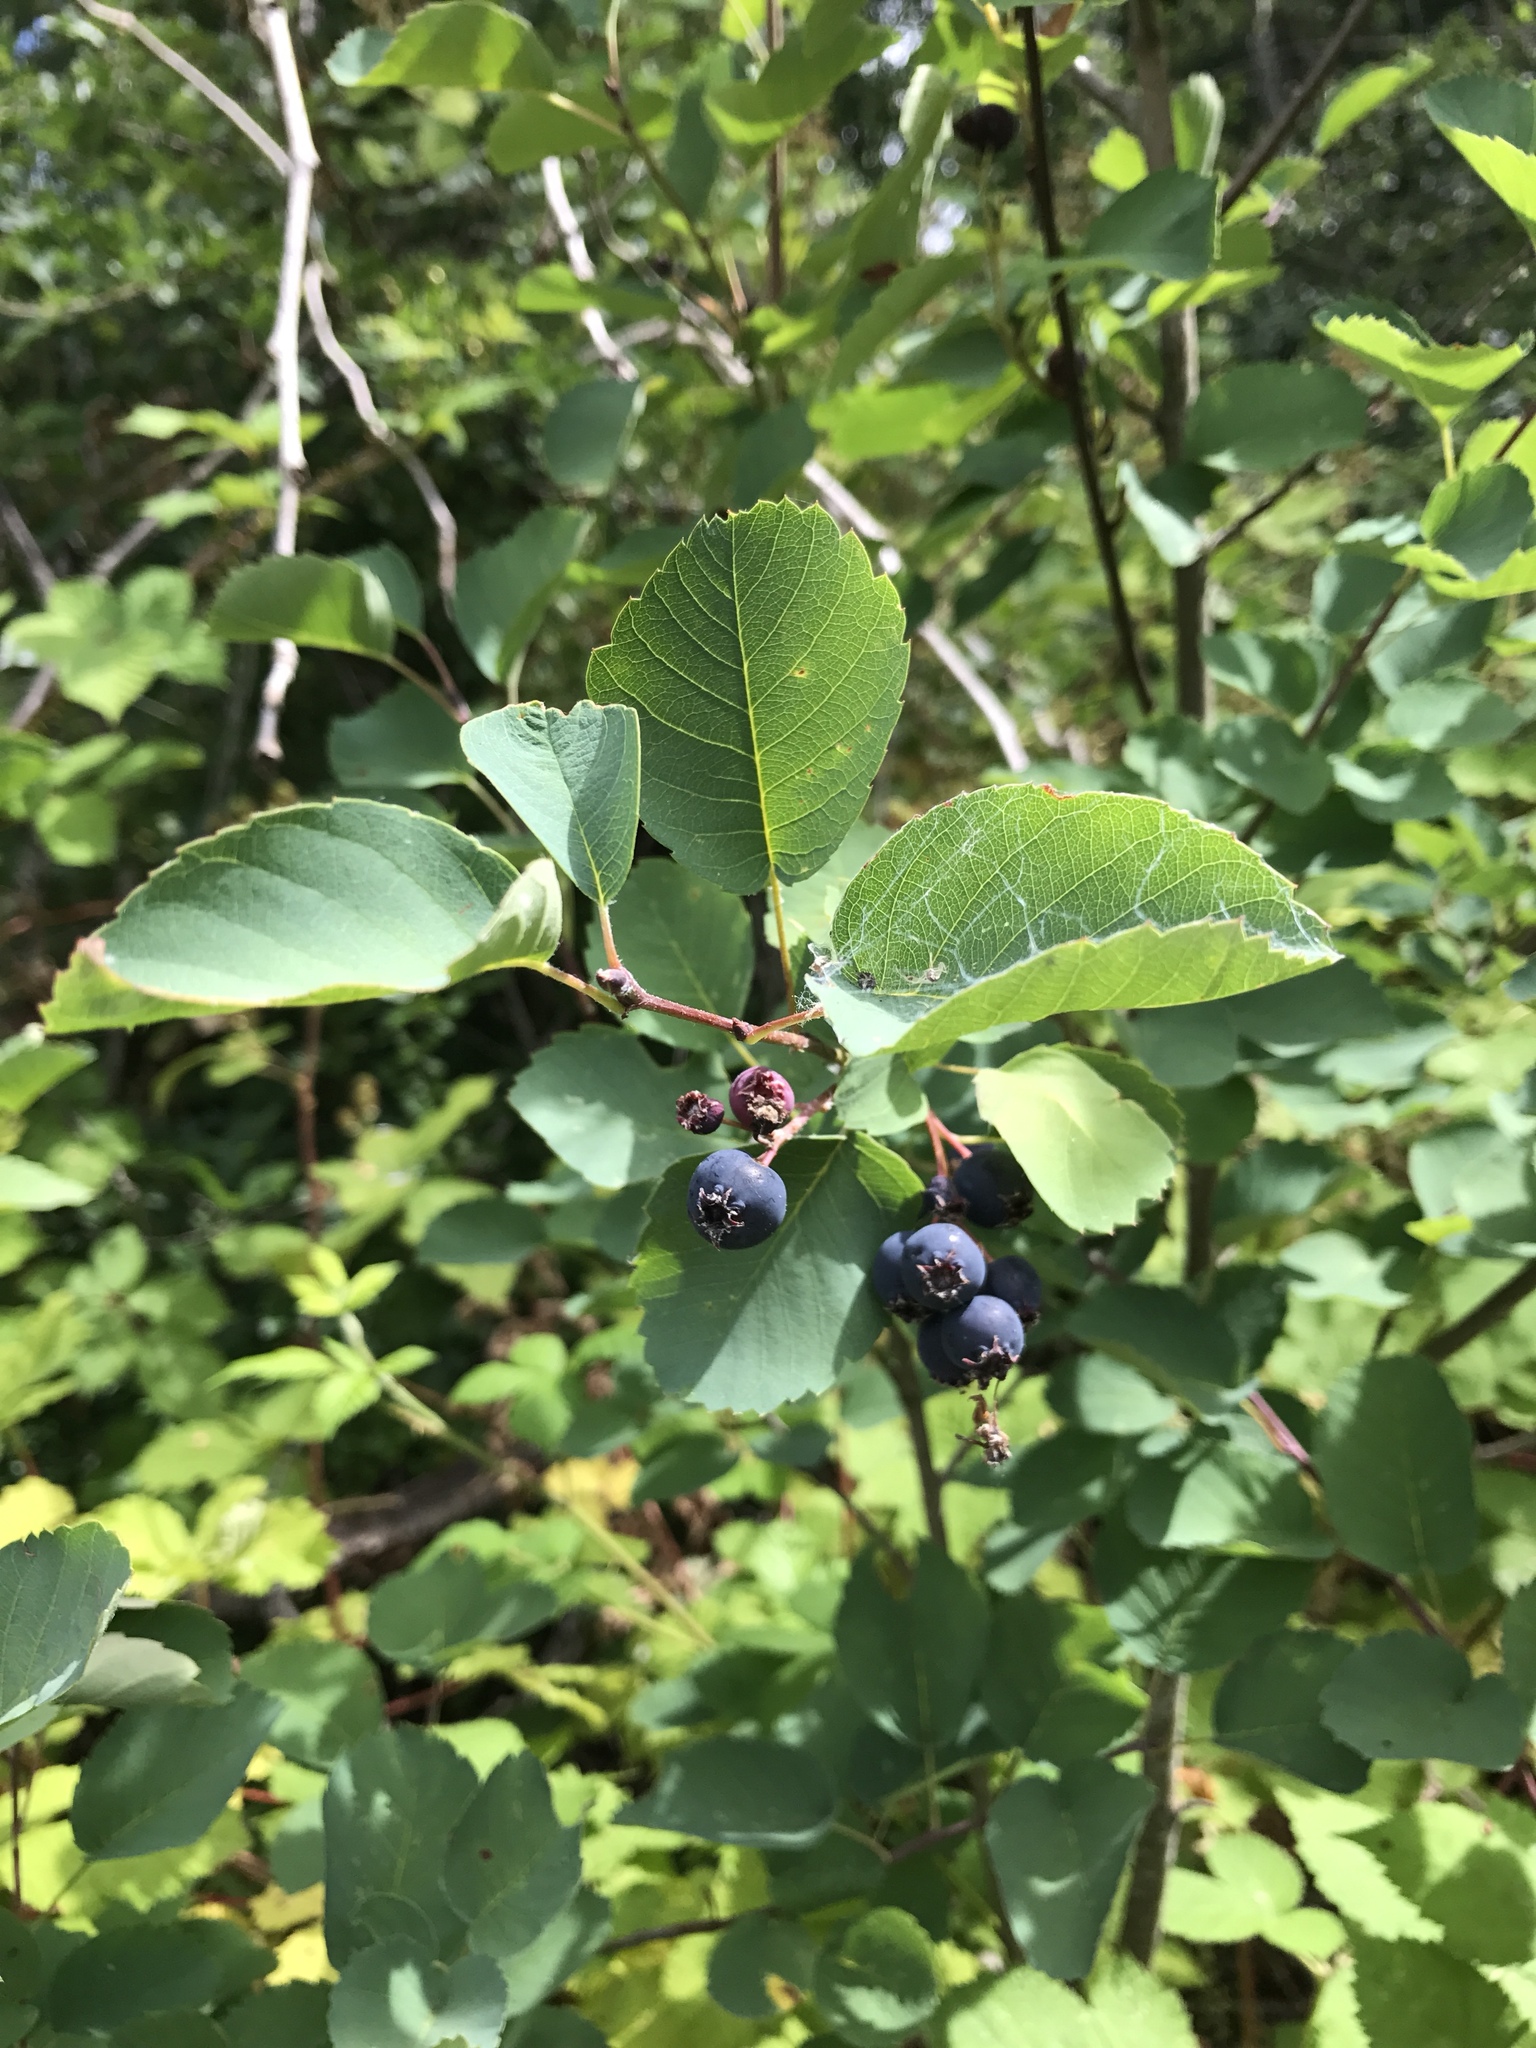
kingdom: Plantae
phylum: Tracheophyta
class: Magnoliopsida
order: Rosales
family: Rosaceae
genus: Amelanchier
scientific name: Amelanchier alnifolia
